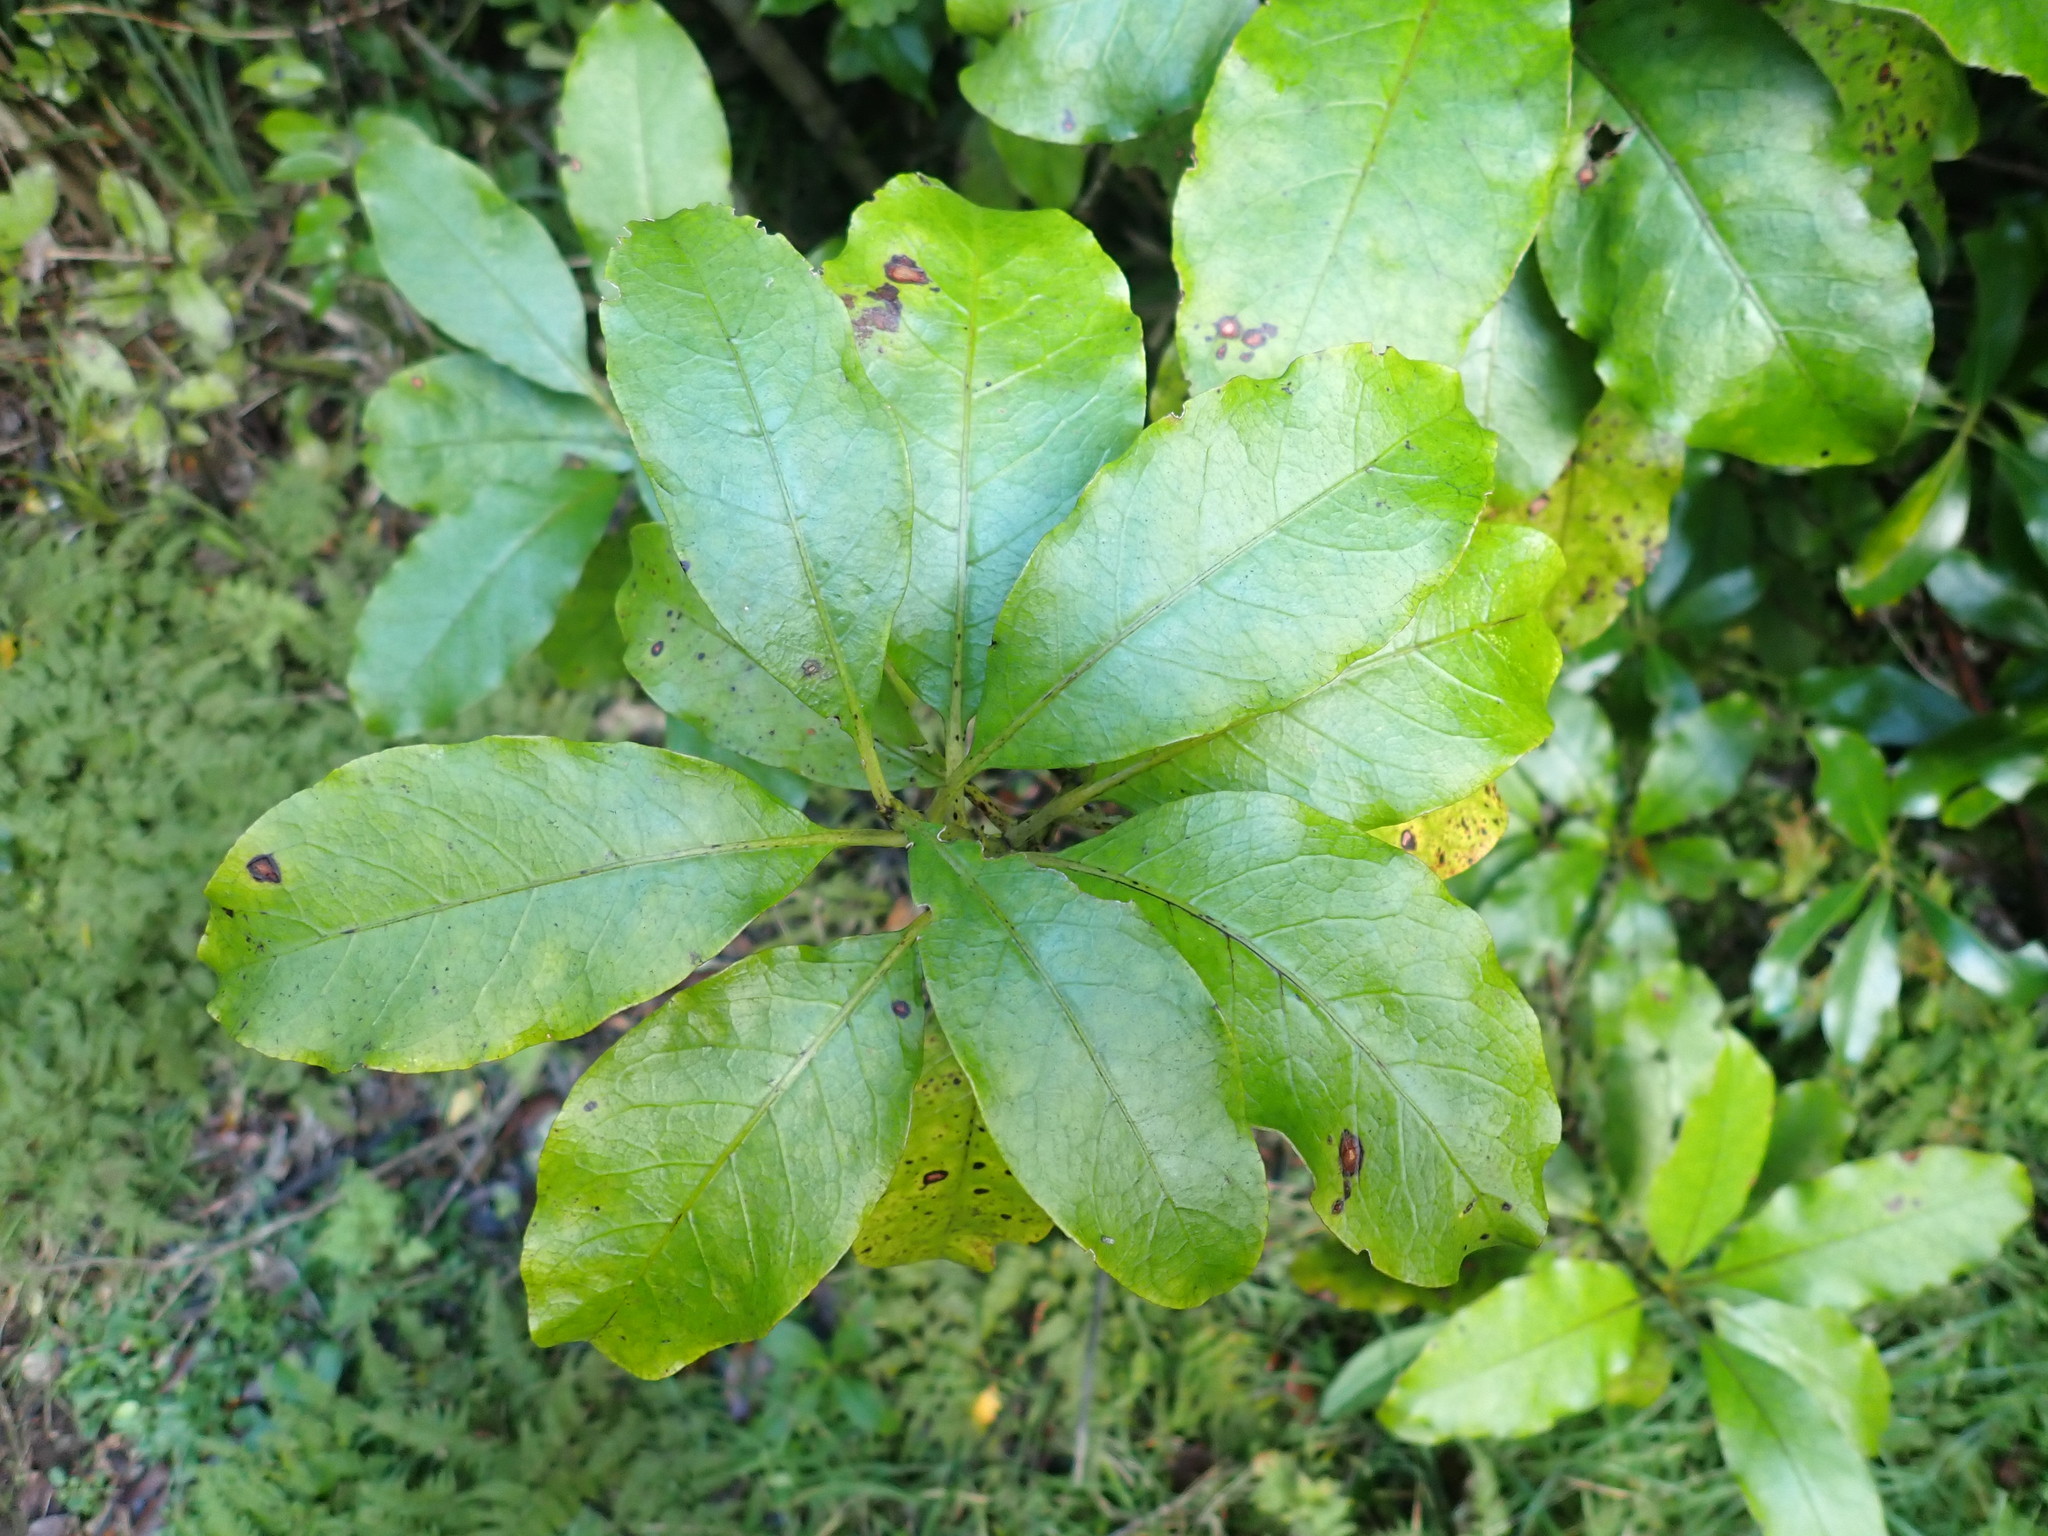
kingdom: Plantae
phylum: Tracheophyta
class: Magnoliopsida
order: Gentianales
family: Rubiaceae
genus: Coprosma
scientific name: Coprosma autumnalis
